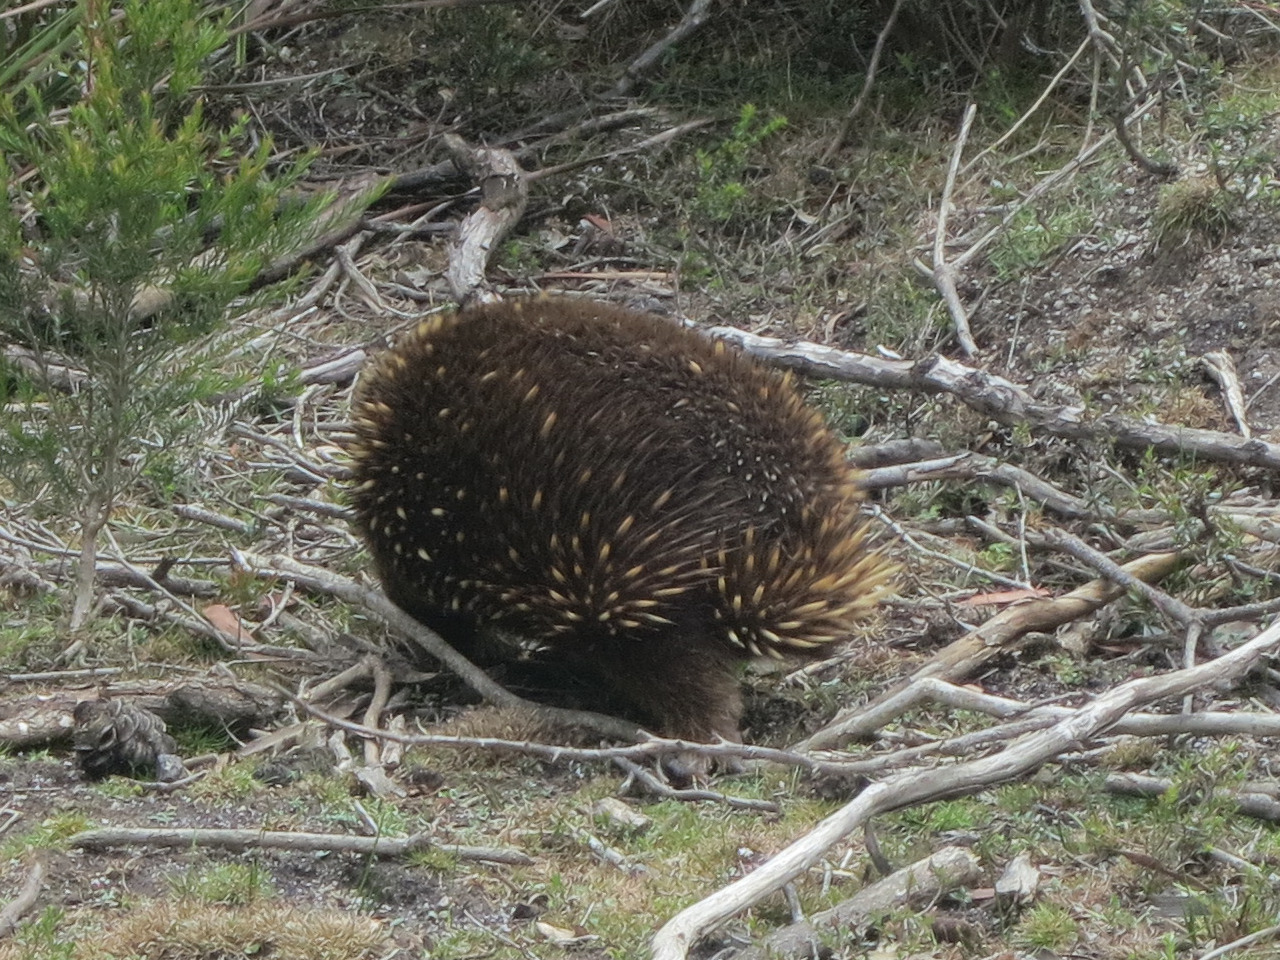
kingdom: Animalia
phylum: Chordata
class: Mammalia
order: Monotremata
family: Tachyglossidae
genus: Tachyglossus
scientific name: Tachyglossus aculeatus
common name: Short-beaked echidna
